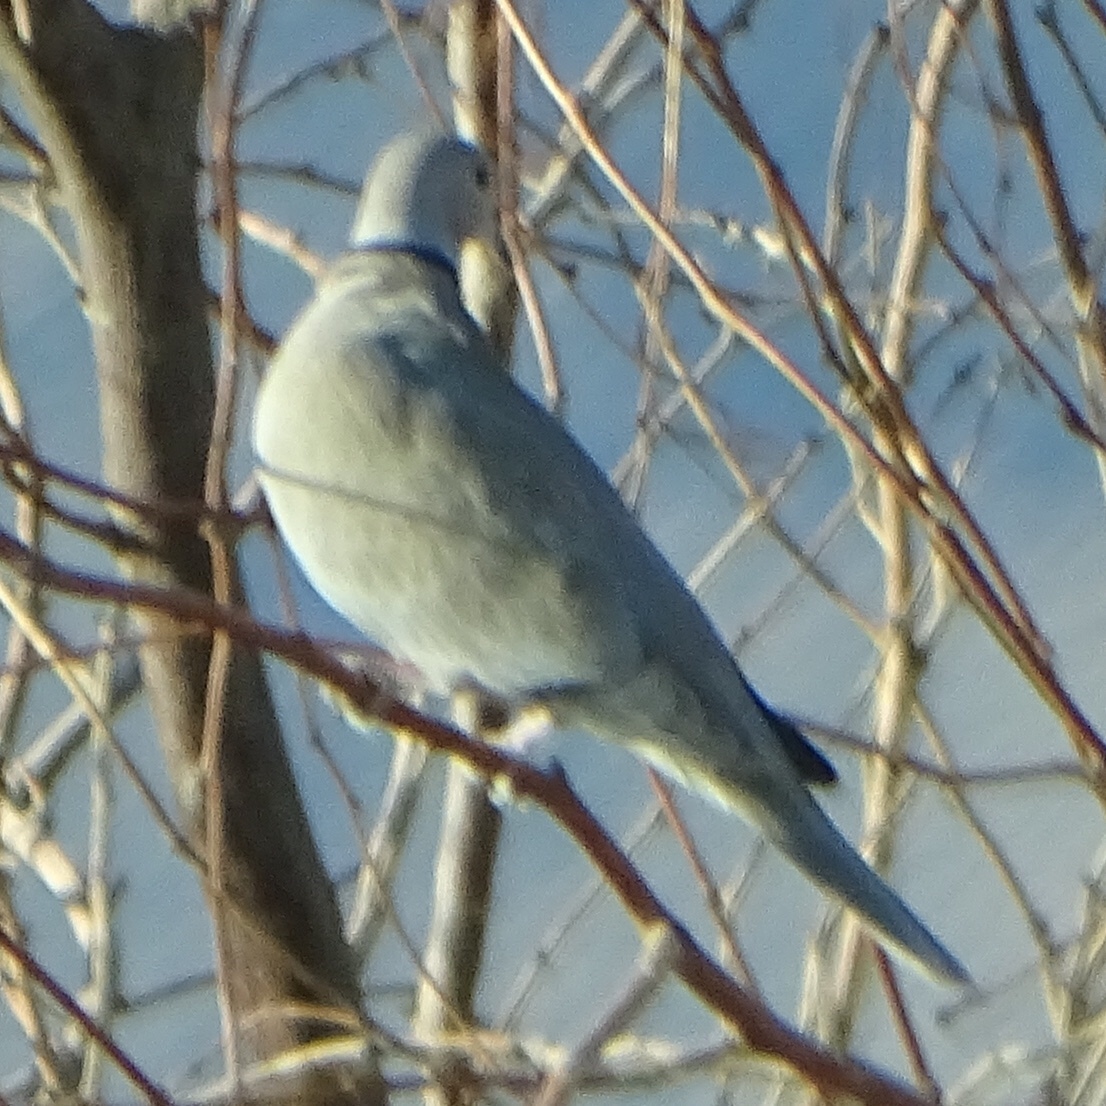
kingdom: Animalia
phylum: Chordata
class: Aves
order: Columbiformes
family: Columbidae
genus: Streptopelia
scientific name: Streptopelia decaocto
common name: Eurasian collared dove
